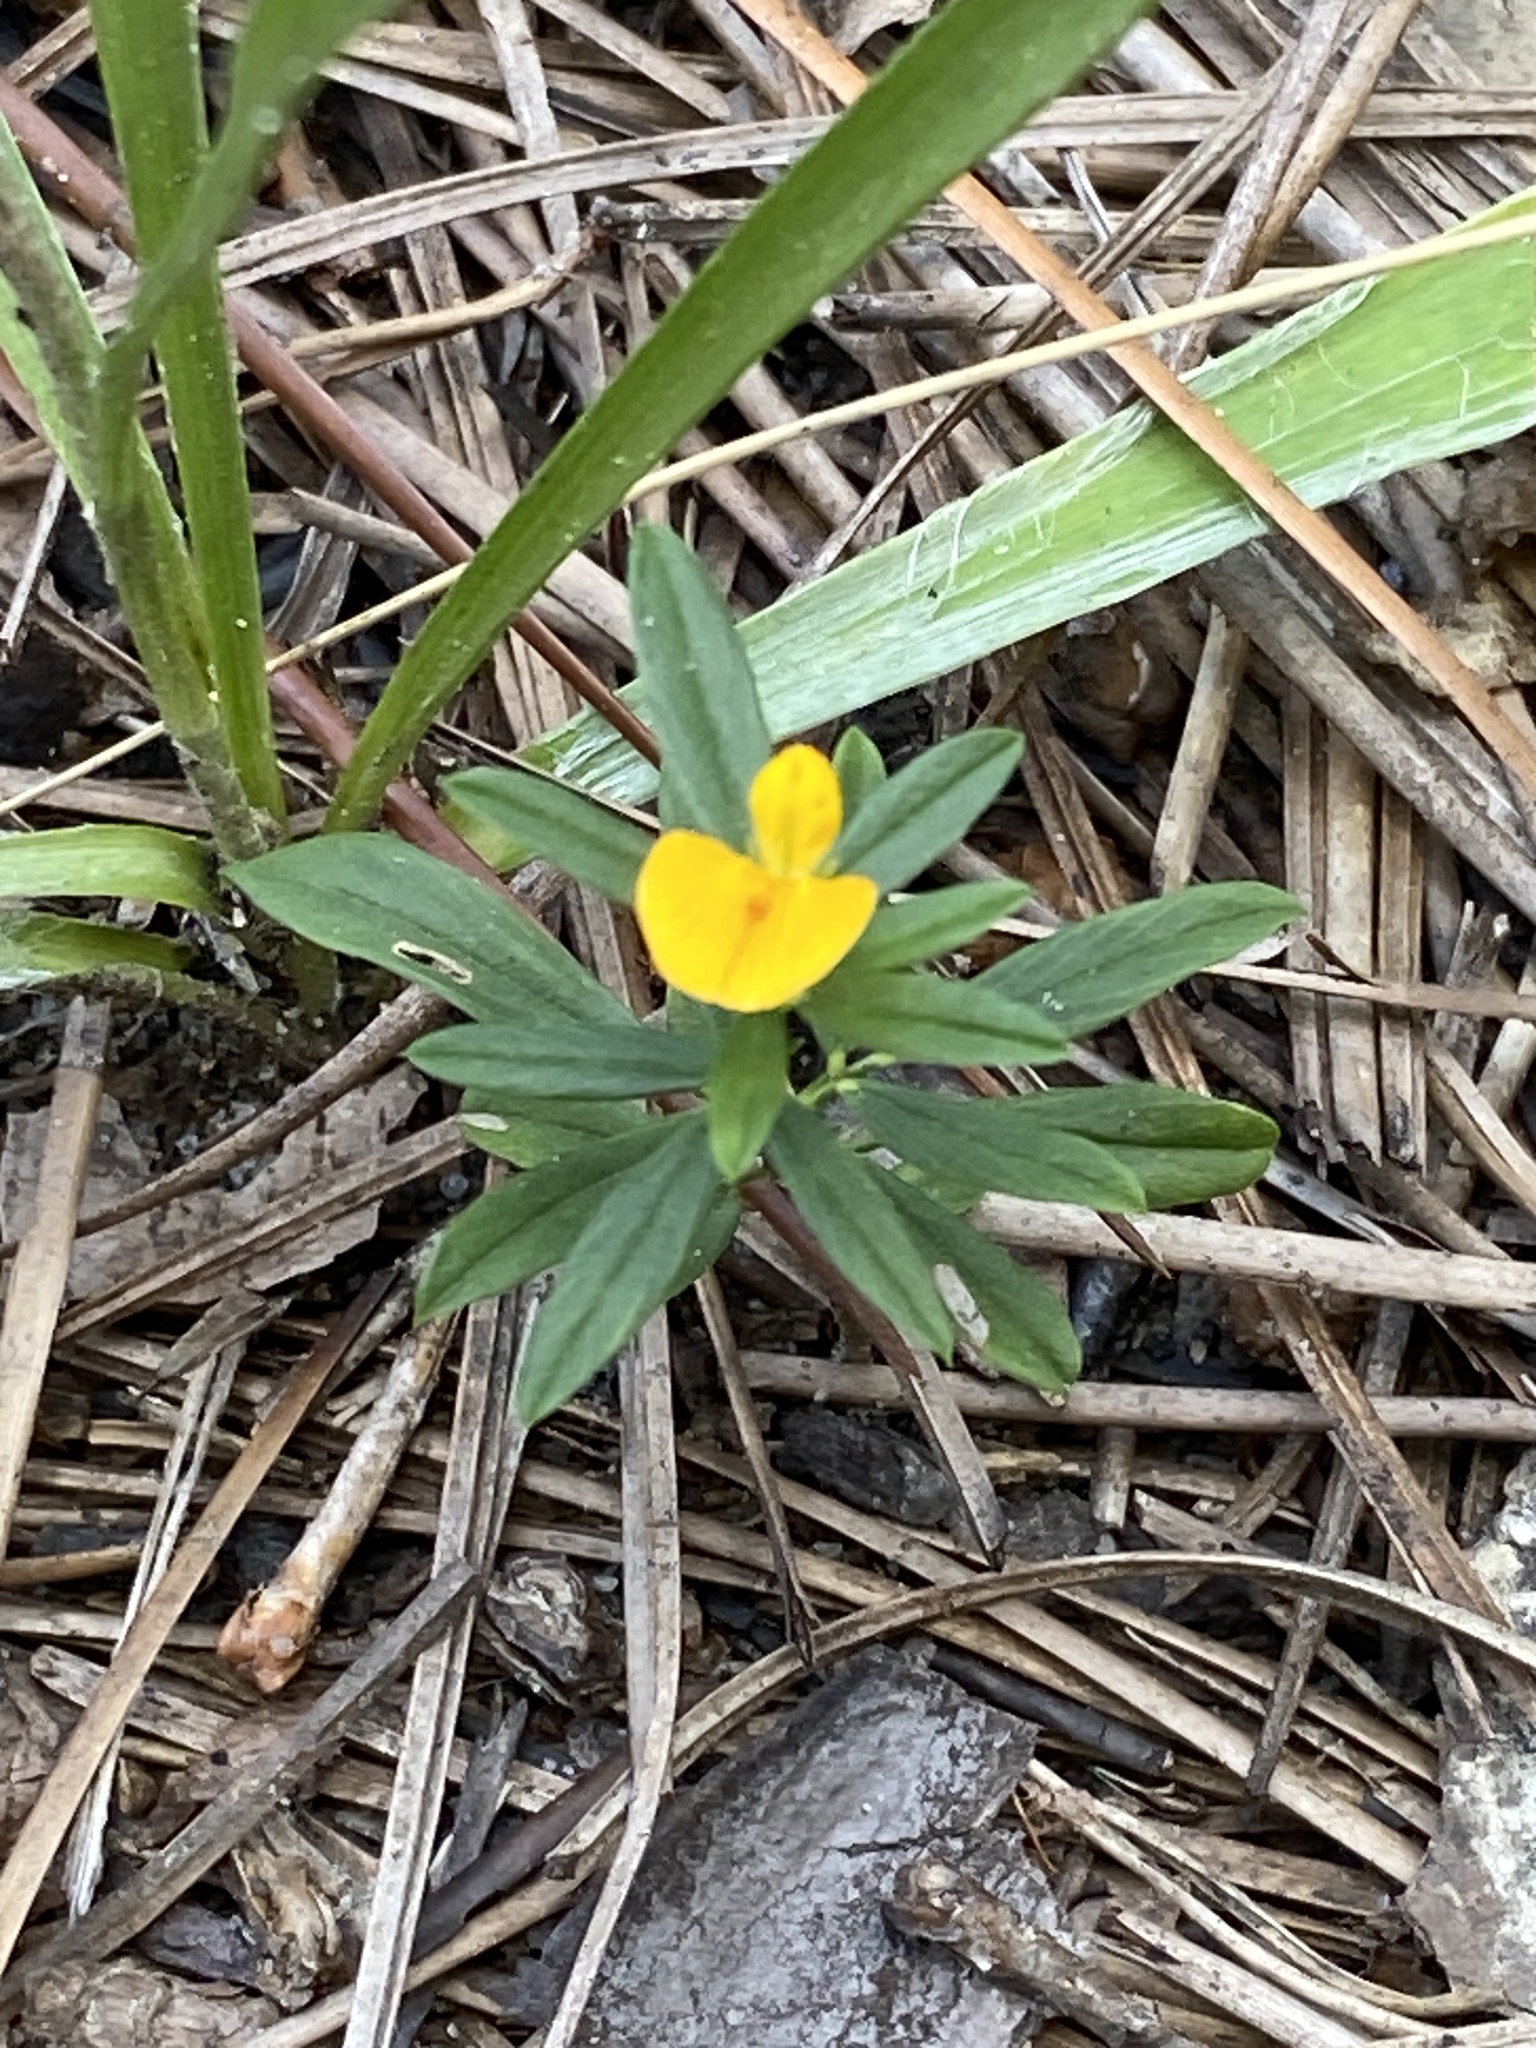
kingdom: Plantae
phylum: Tracheophyta
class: Magnoliopsida
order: Fabales
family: Fabaceae
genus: Stylosanthes
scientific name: Stylosanthes biflora
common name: Two-flower pencil-flower
